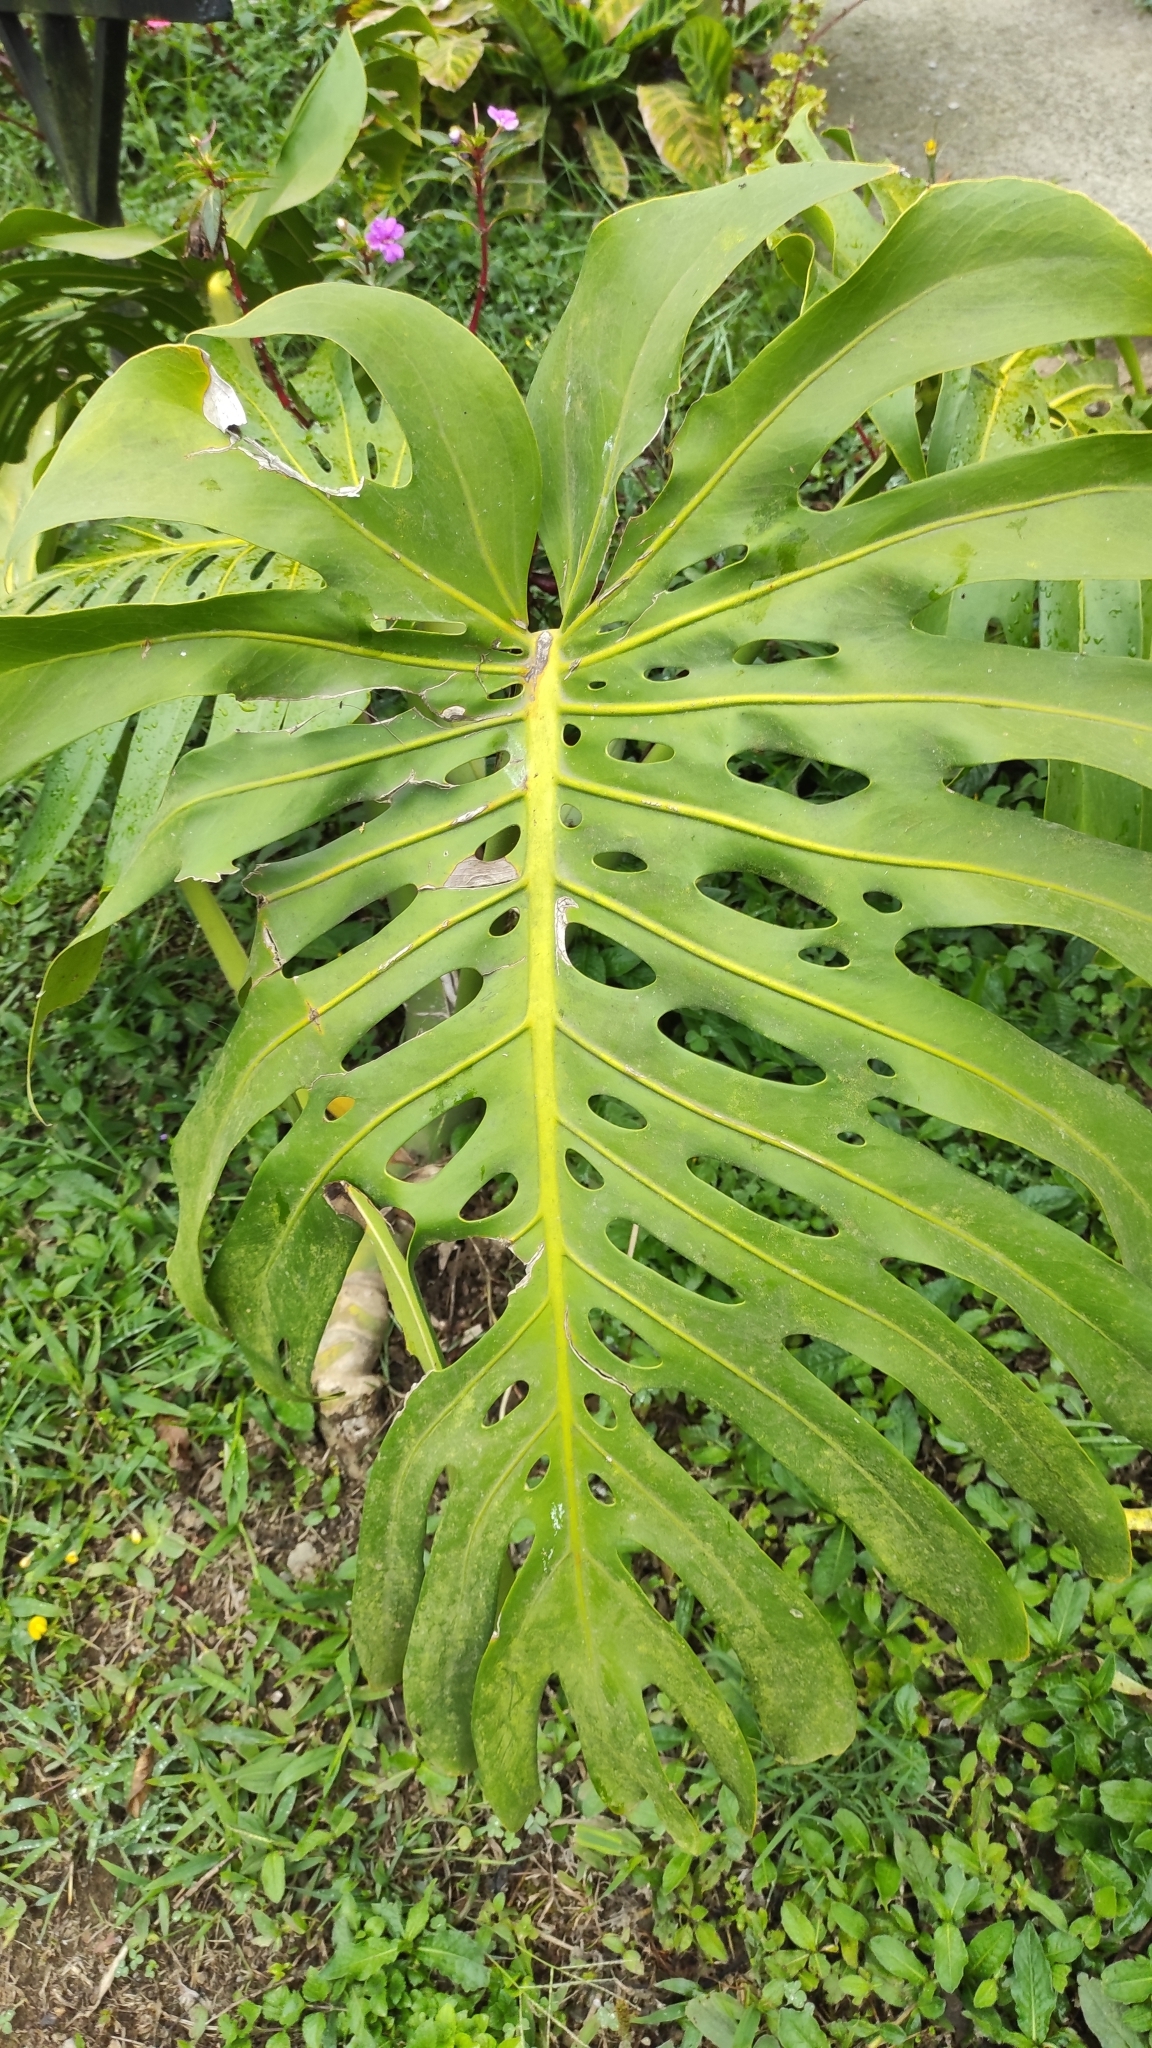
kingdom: Plantae
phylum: Tracheophyta
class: Liliopsida
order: Alismatales
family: Araceae
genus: Monstera
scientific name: Monstera deliciosa
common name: Cut-leaf-philodendron
